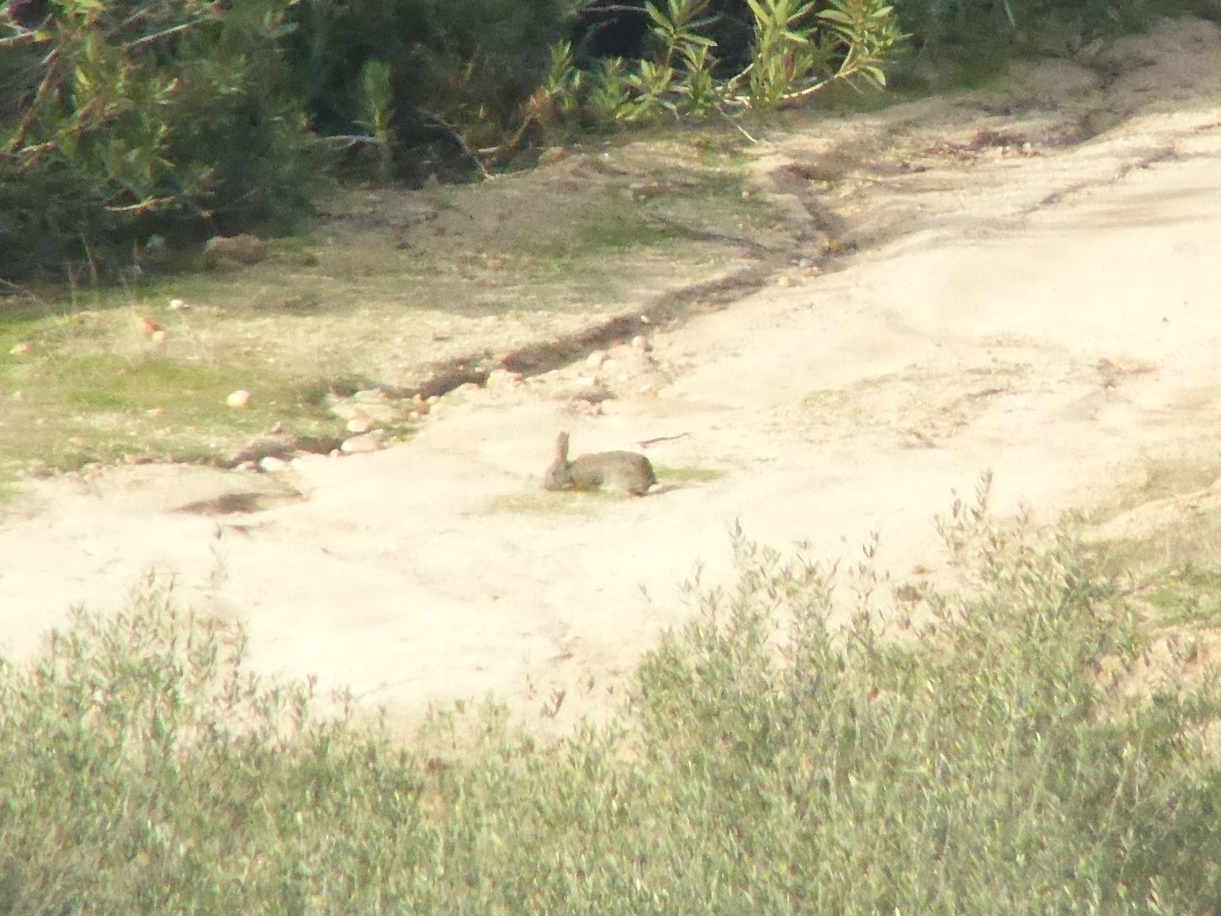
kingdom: Animalia
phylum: Chordata
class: Mammalia
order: Lagomorpha
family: Leporidae
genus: Oryctolagus
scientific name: Oryctolagus cuniculus
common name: European rabbit
